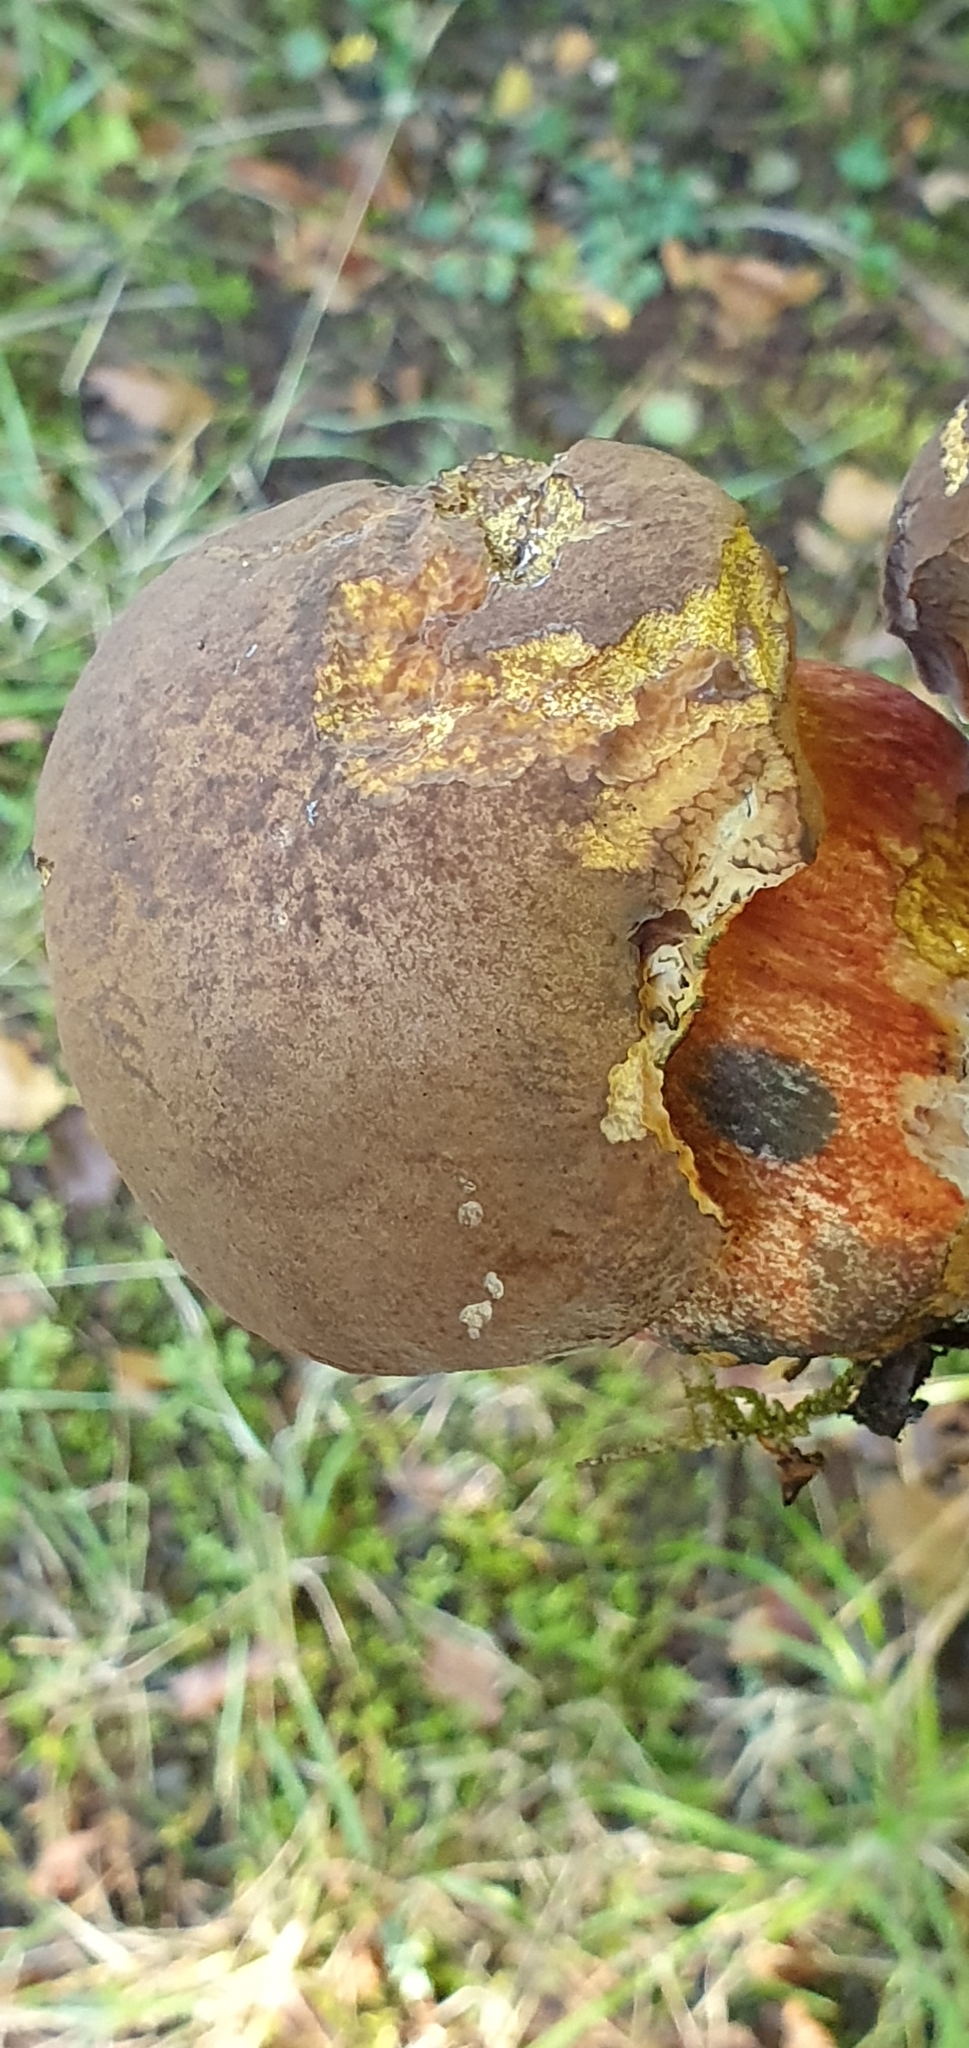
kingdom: Fungi
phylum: Basidiomycota
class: Agaricomycetes
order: Boletales
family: Boletaceae
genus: Neoboletus
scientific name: Neoboletus luridiformis
